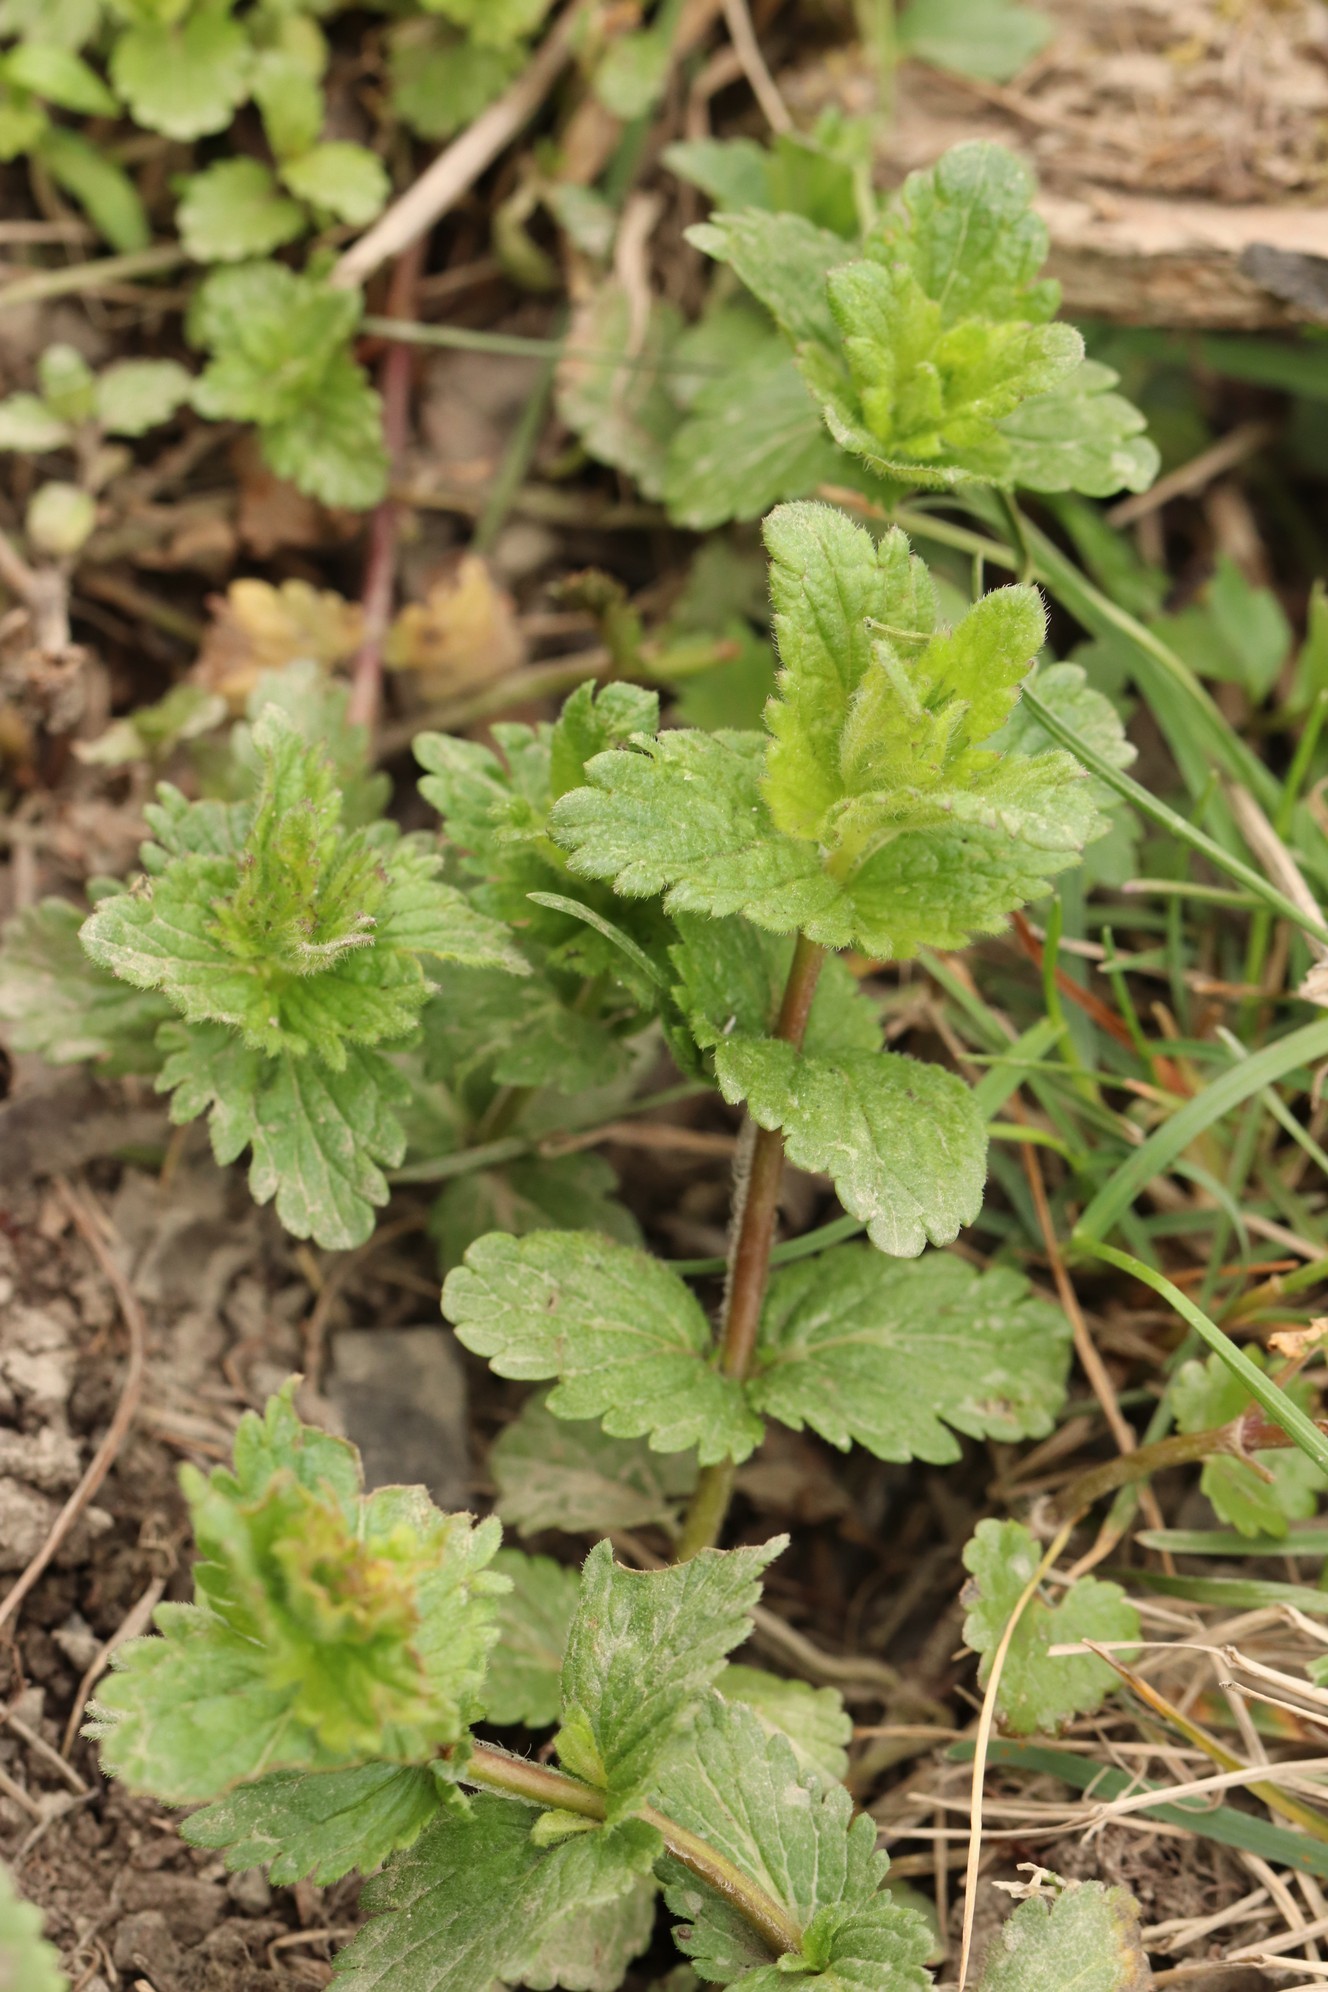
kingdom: Plantae
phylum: Tracheophyta
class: Magnoliopsida
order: Lamiales
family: Plantaginaceae
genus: Veronica
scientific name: Veronica chamaedrys
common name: Germander speedwell
